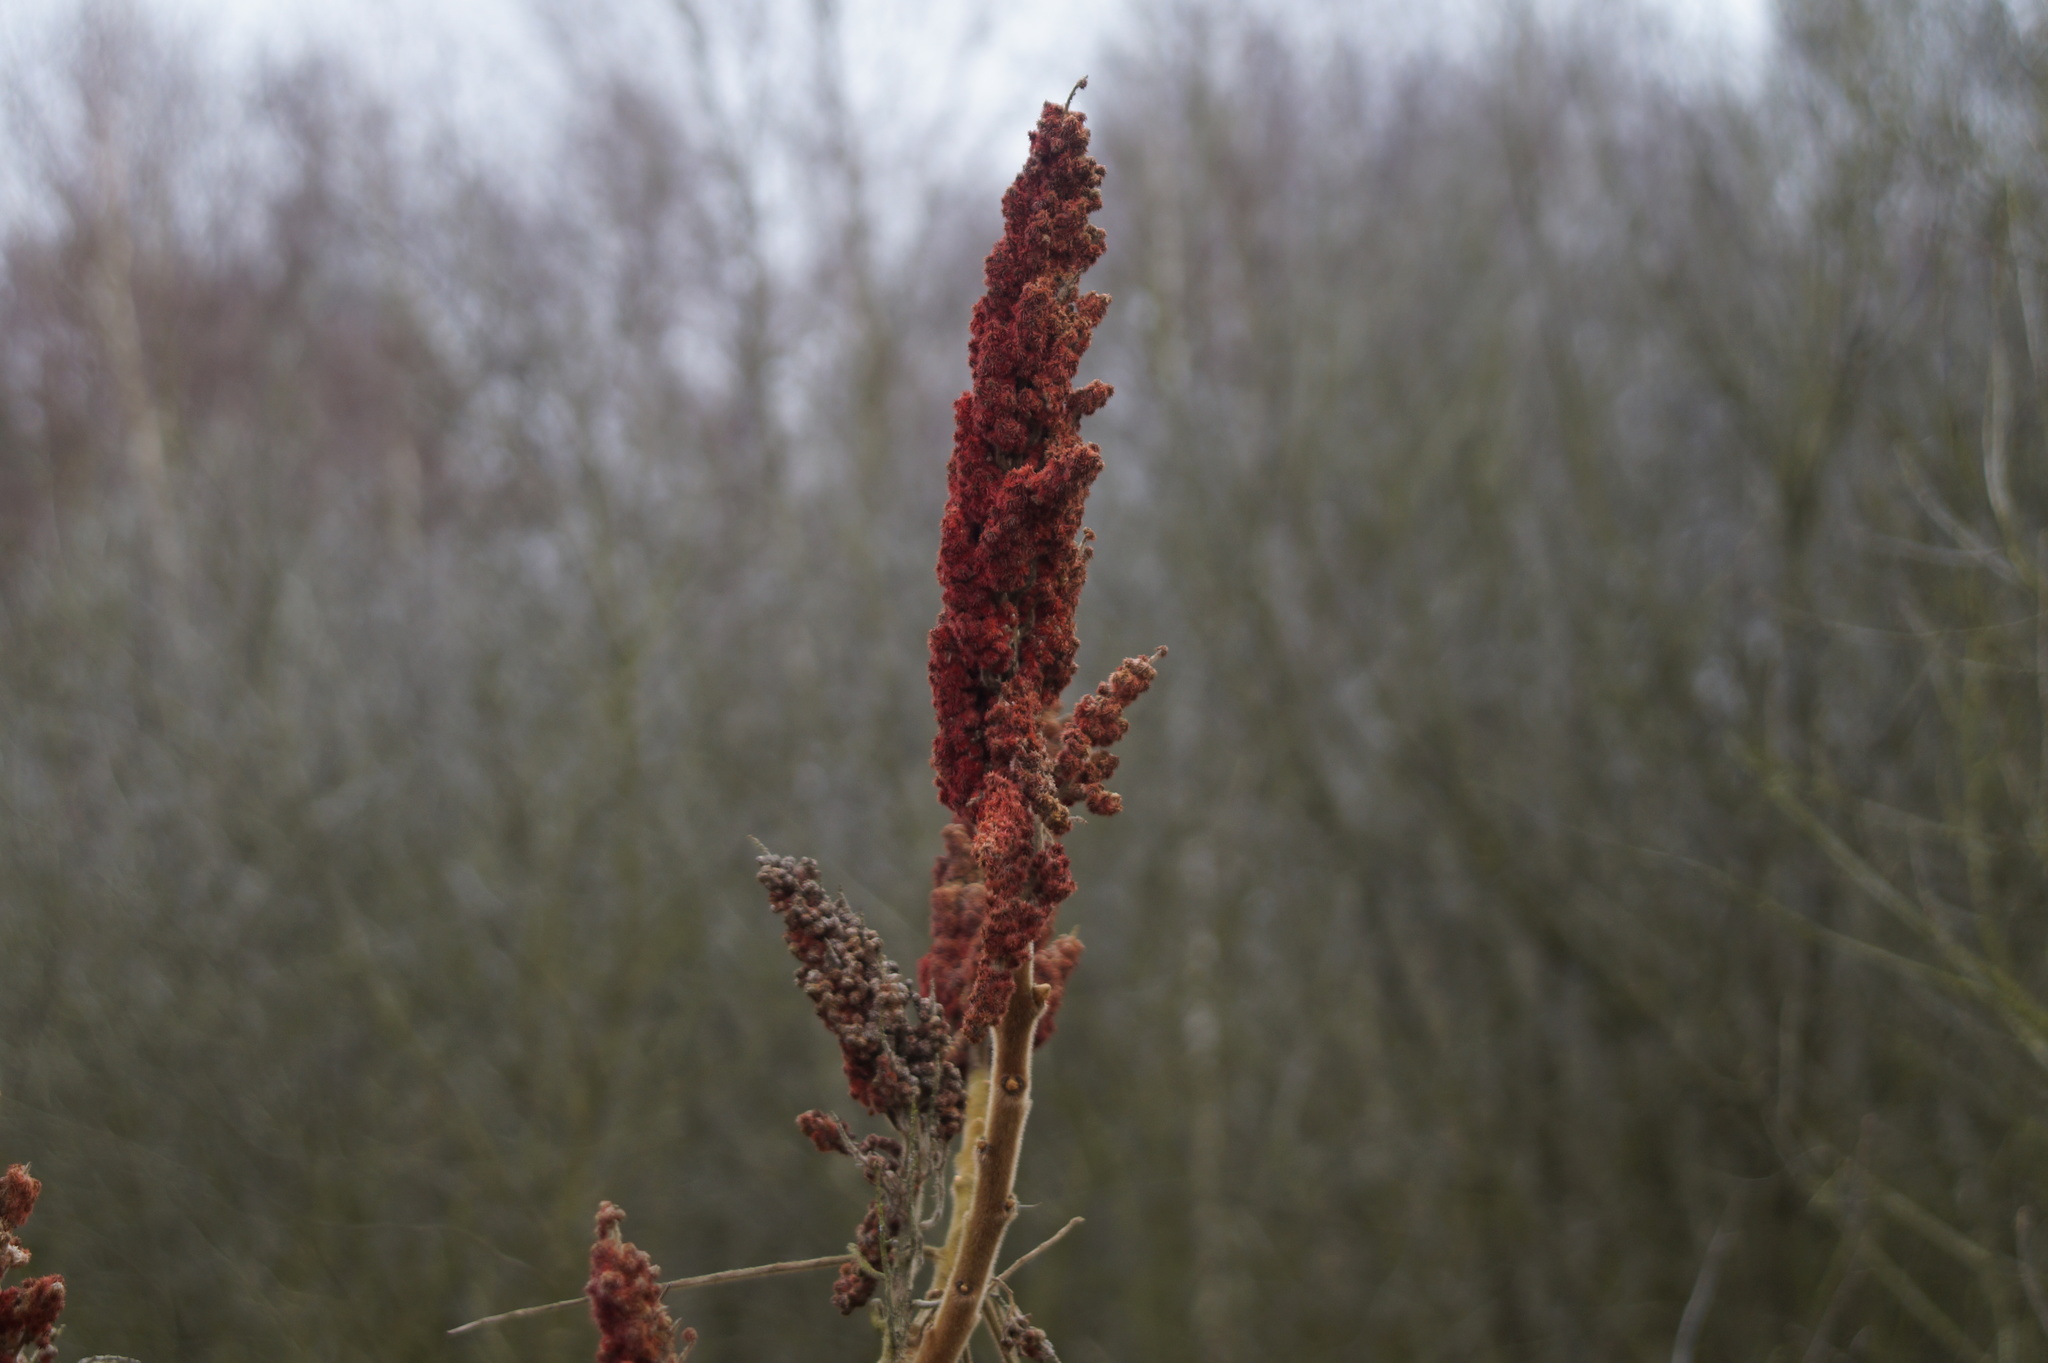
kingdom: Plantae
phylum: Tracheophyta
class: Magnoliopsida
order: Sapindales
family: Anacardiaceae
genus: Rhus
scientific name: Rhus typhina
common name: Staghorn sumac
